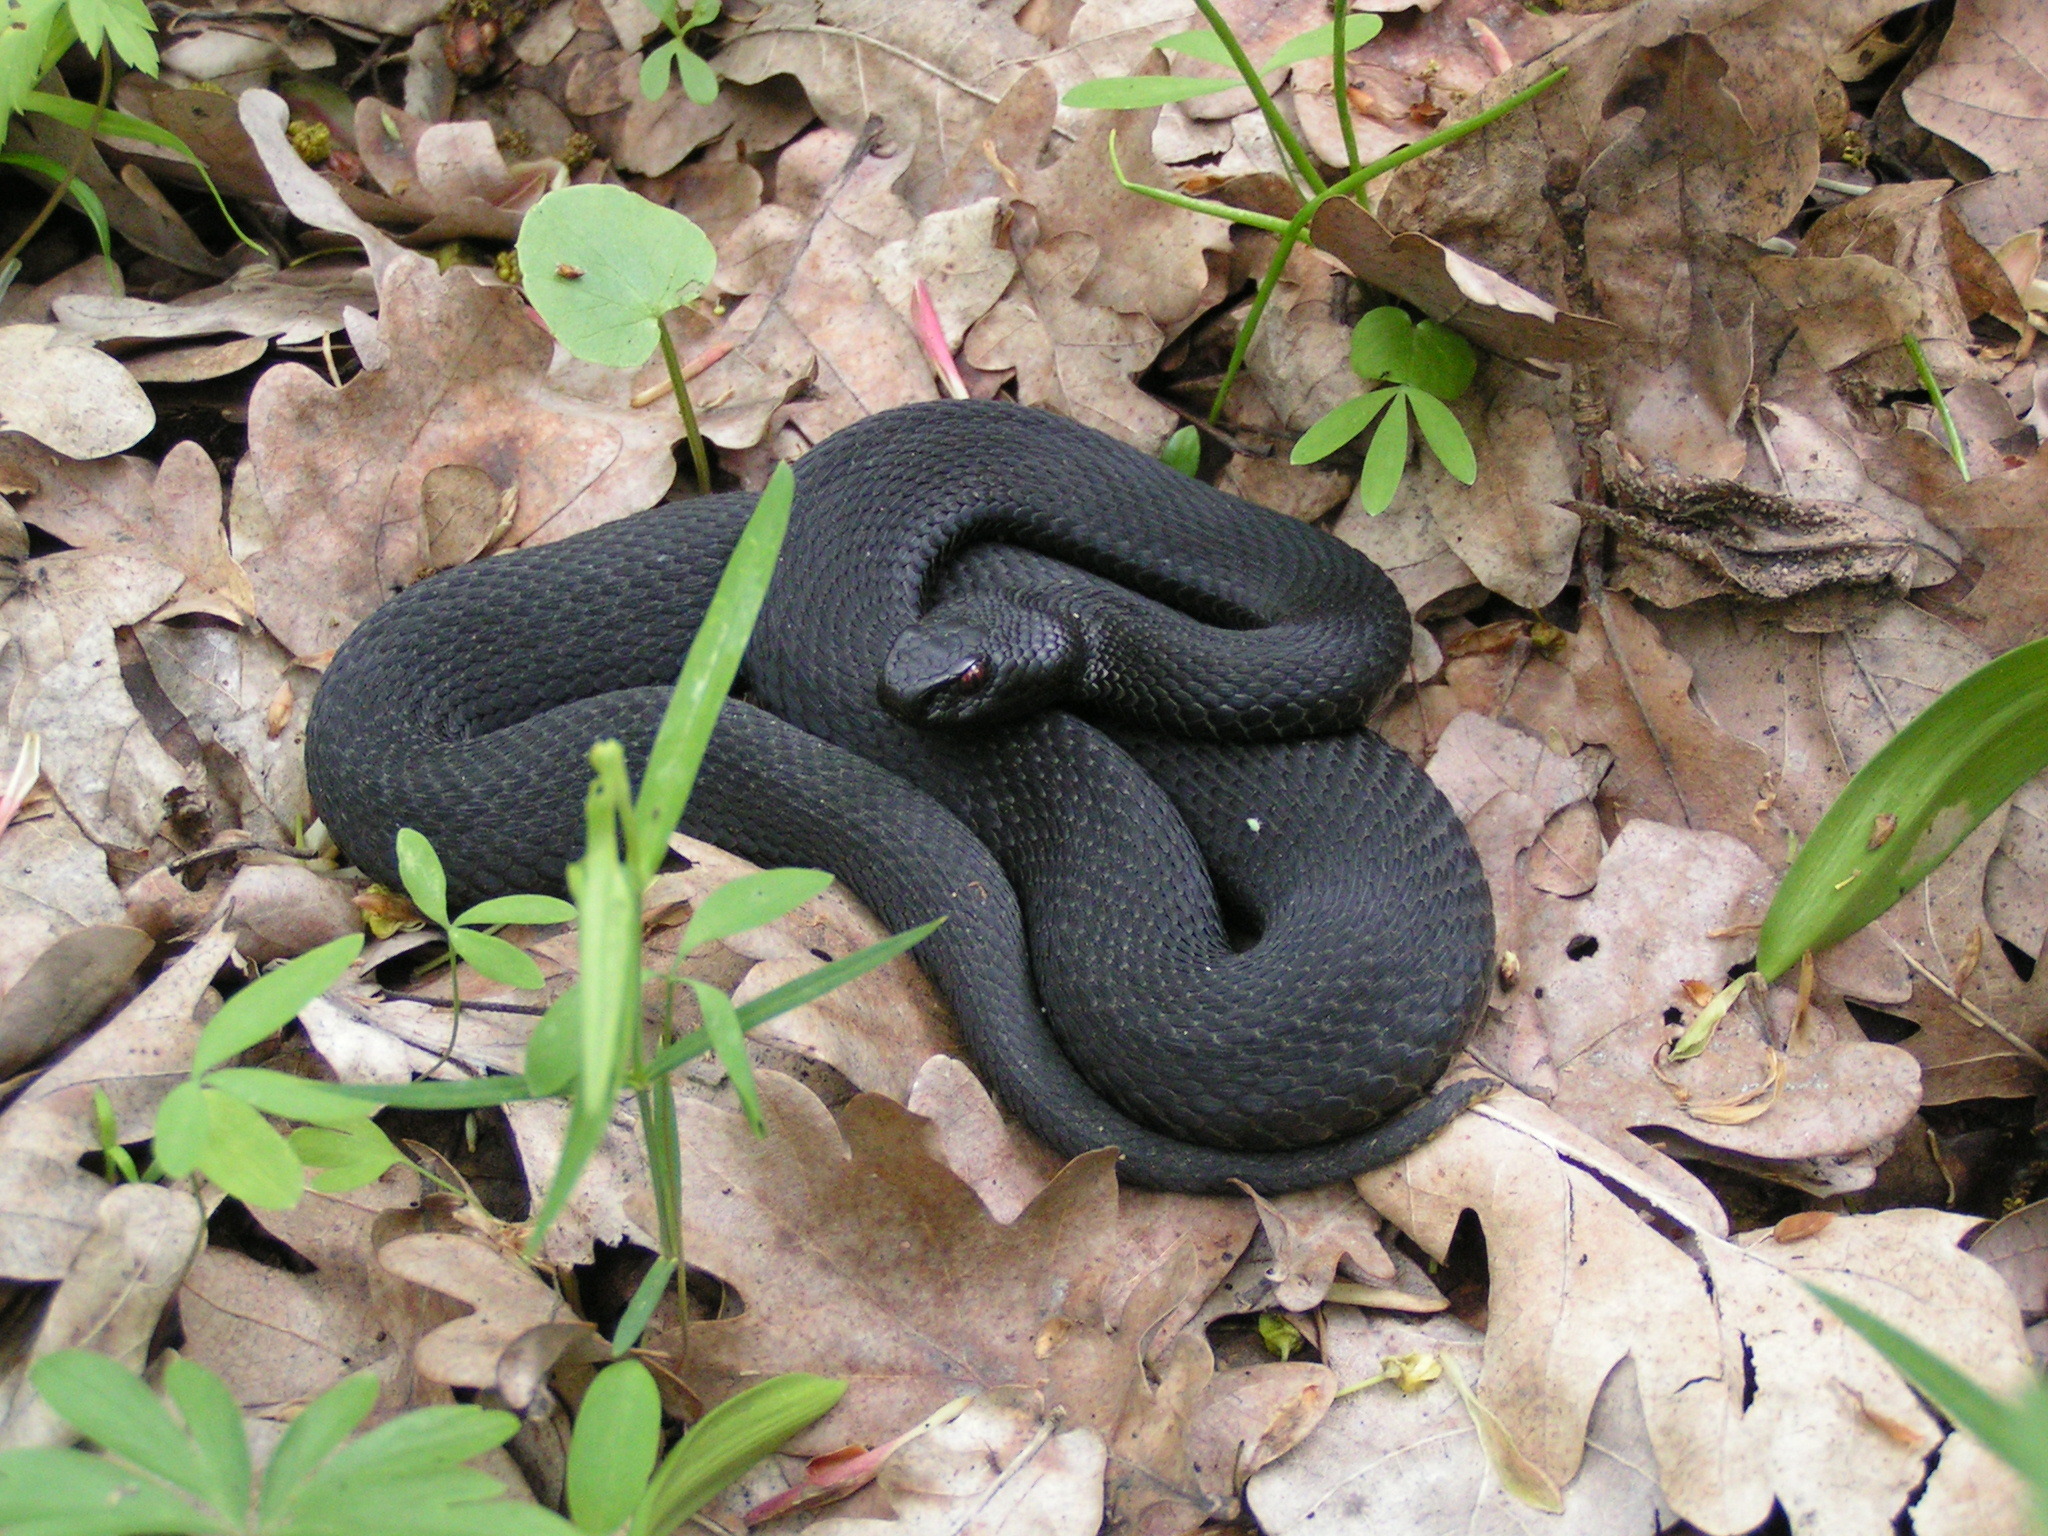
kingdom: Animalia
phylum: Chordata
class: Squamata
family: Viperidae
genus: Vipera
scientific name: Vipera nikolskii
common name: Adder
